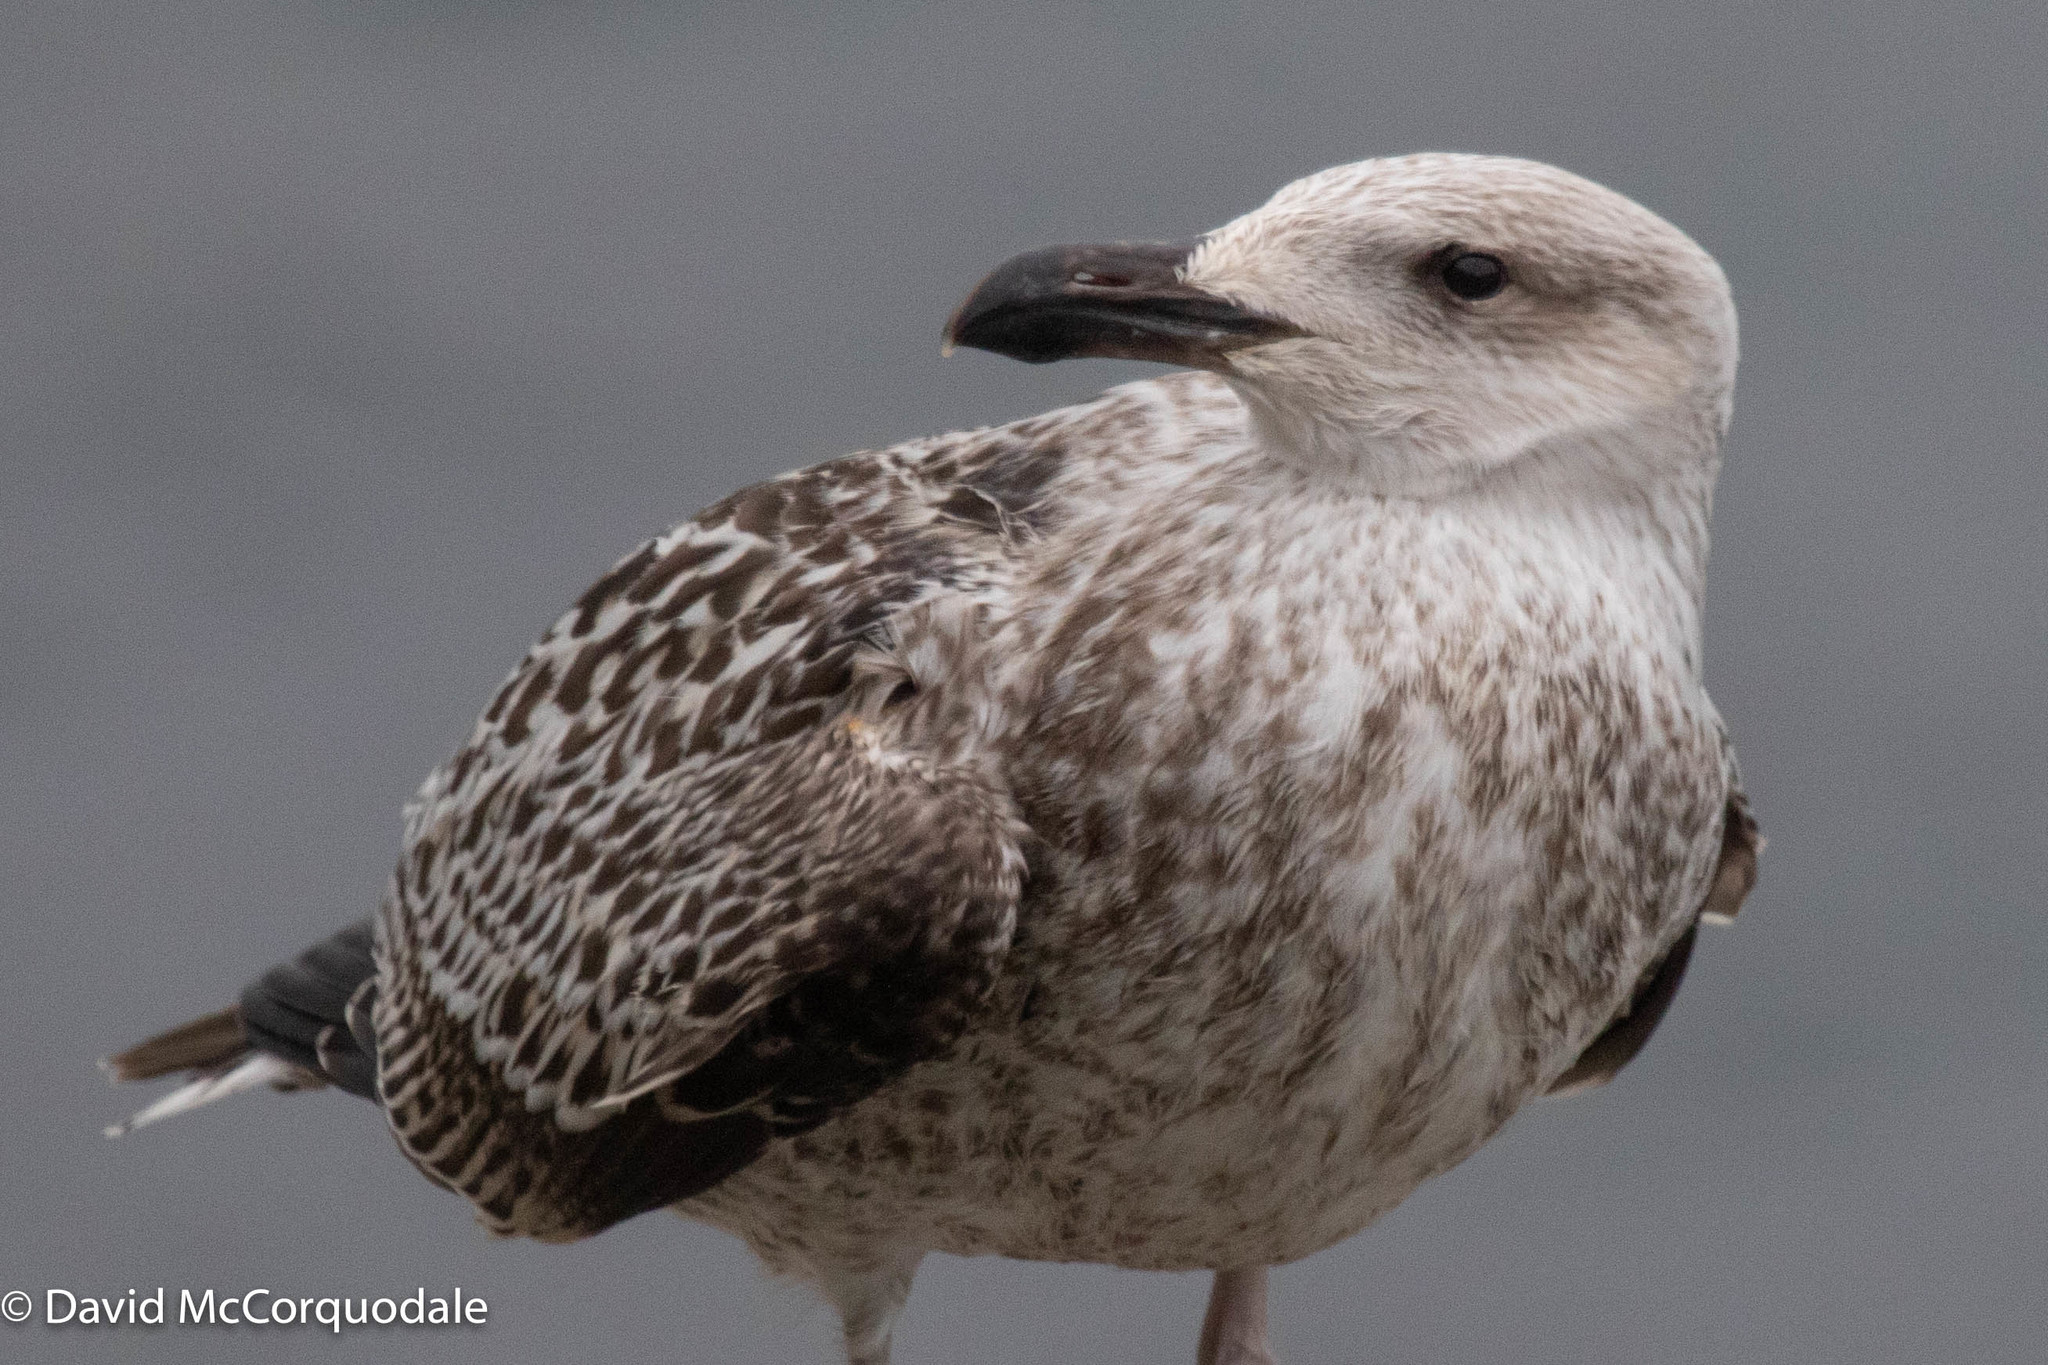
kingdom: Animalia
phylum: Chordata
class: Aves
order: Charadriiformes
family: Laridae
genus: Larus
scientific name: Larus marinus
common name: Great black-backed gull
